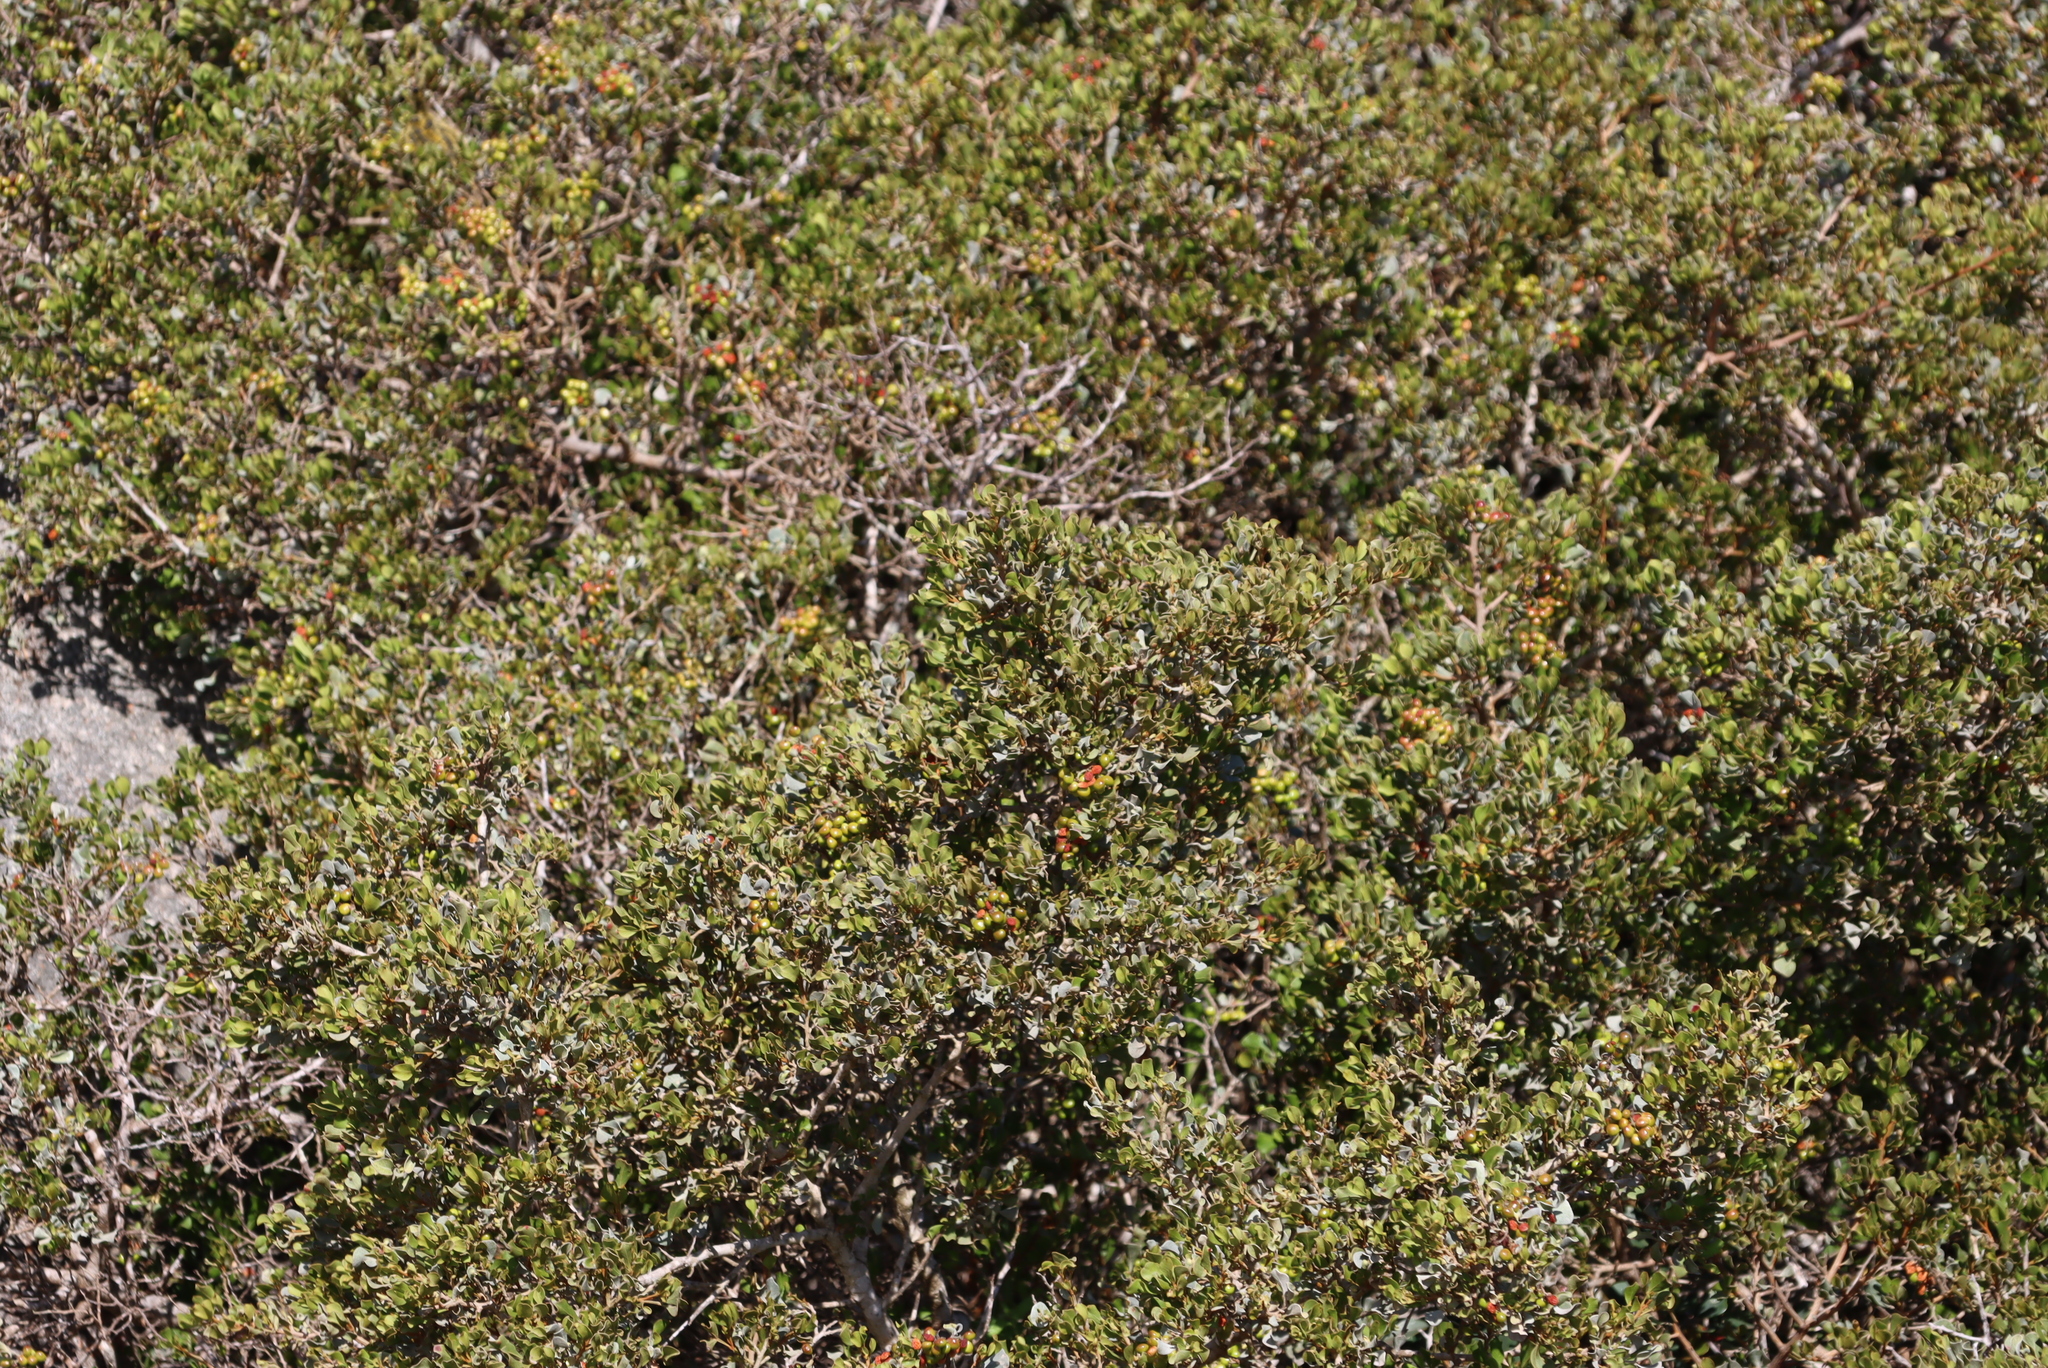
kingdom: Plantae
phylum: Tracheophyta
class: Magnoliopsida
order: Sapindales
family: Anacardiaceae
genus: Searsia
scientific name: Searsia glauca
